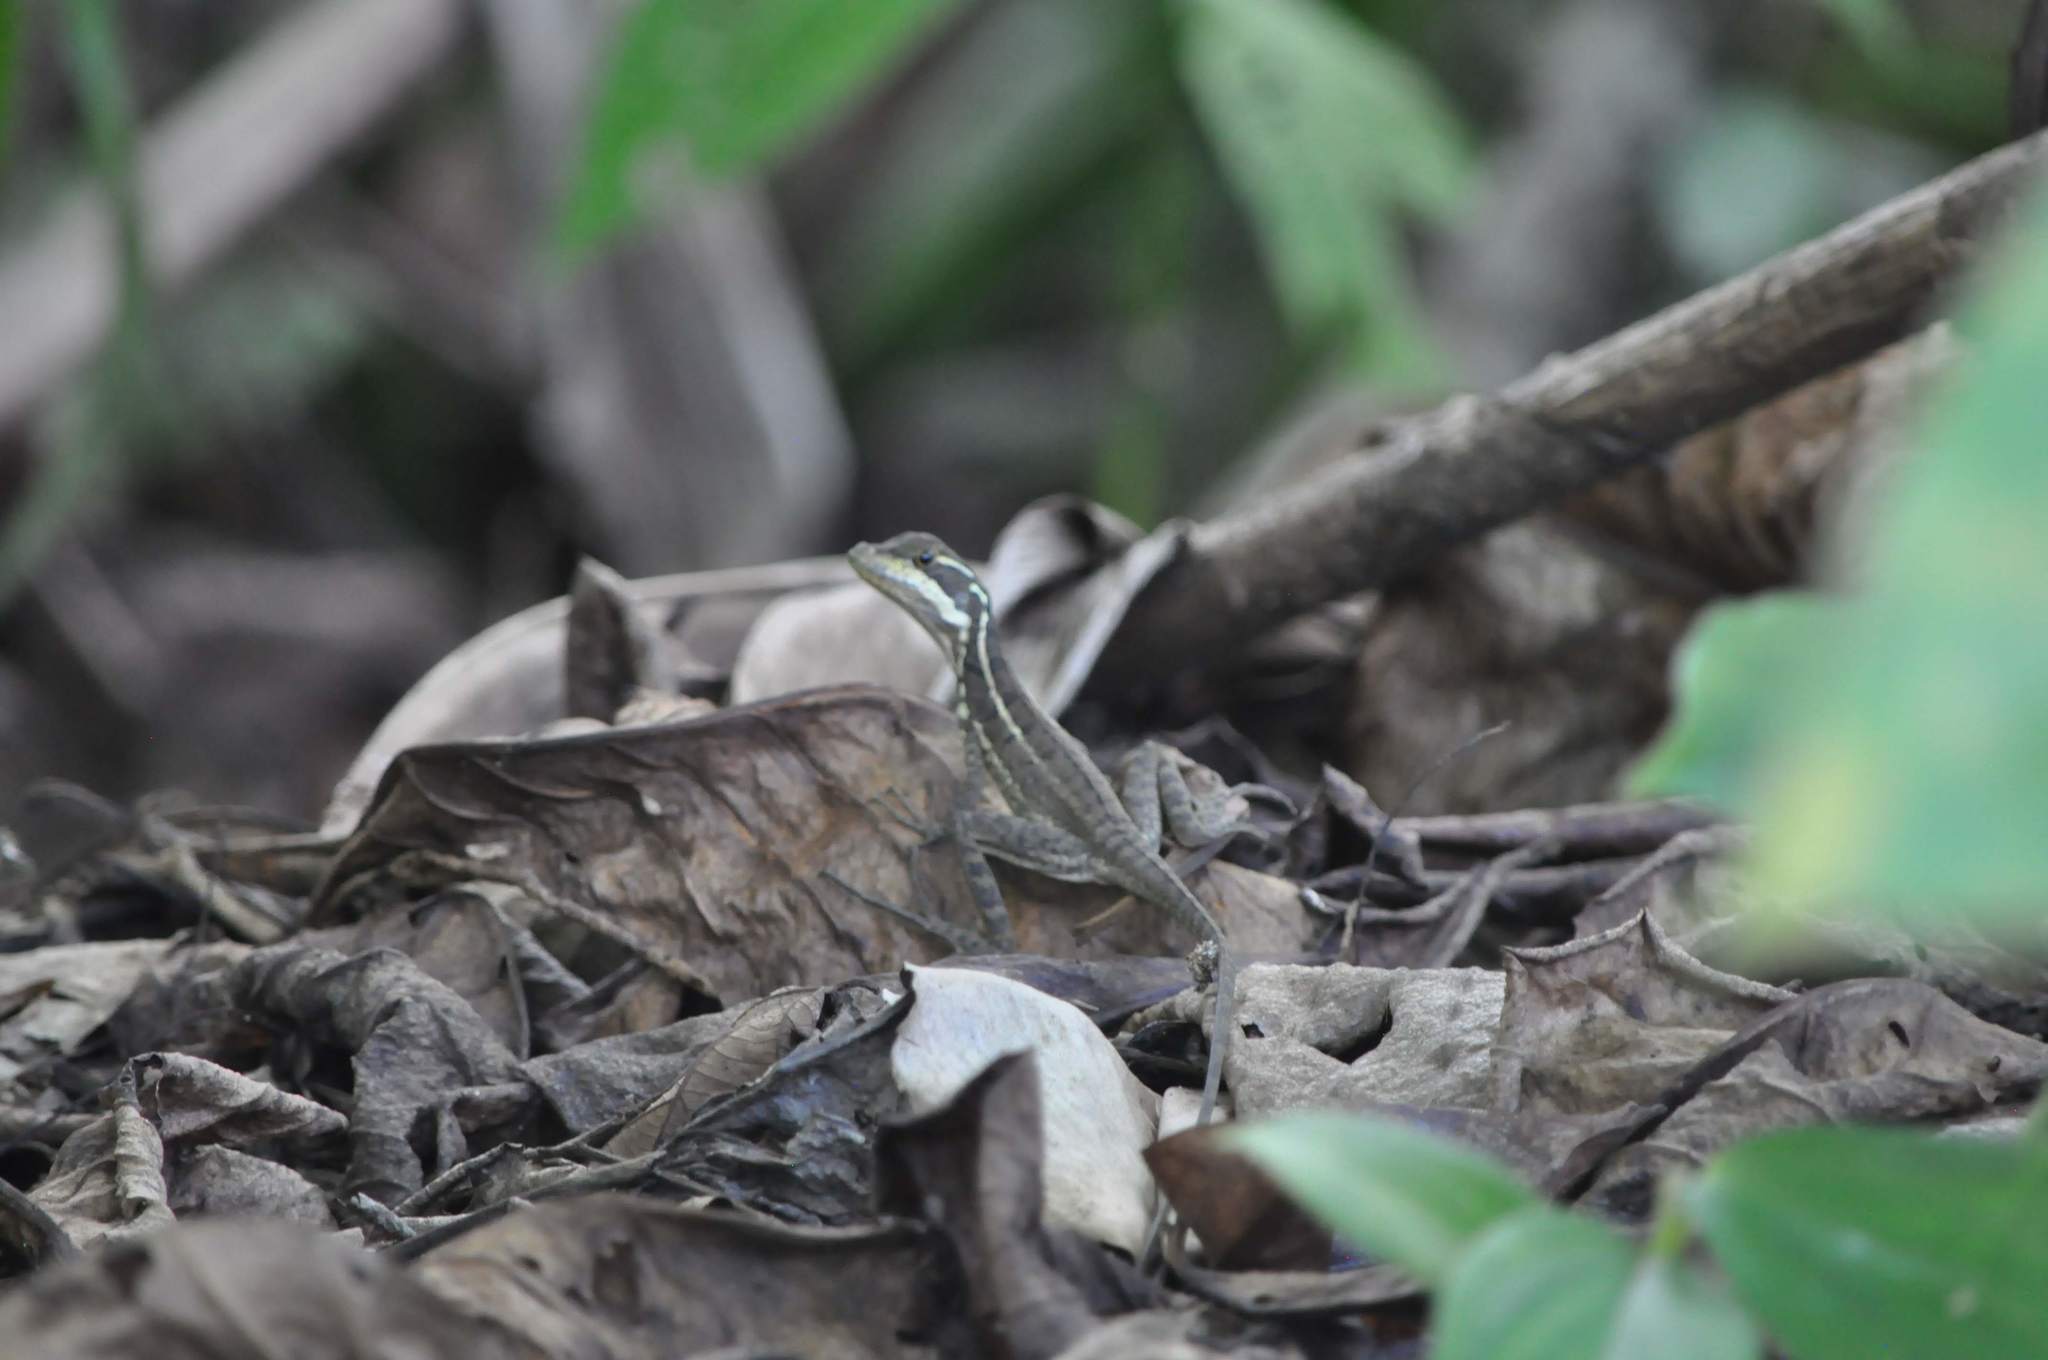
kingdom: Animalia
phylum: Chordata
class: Squamata
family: Corytophanidae
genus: Basiliscus
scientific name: Basiliscus basiliscus
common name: Common basilisk
